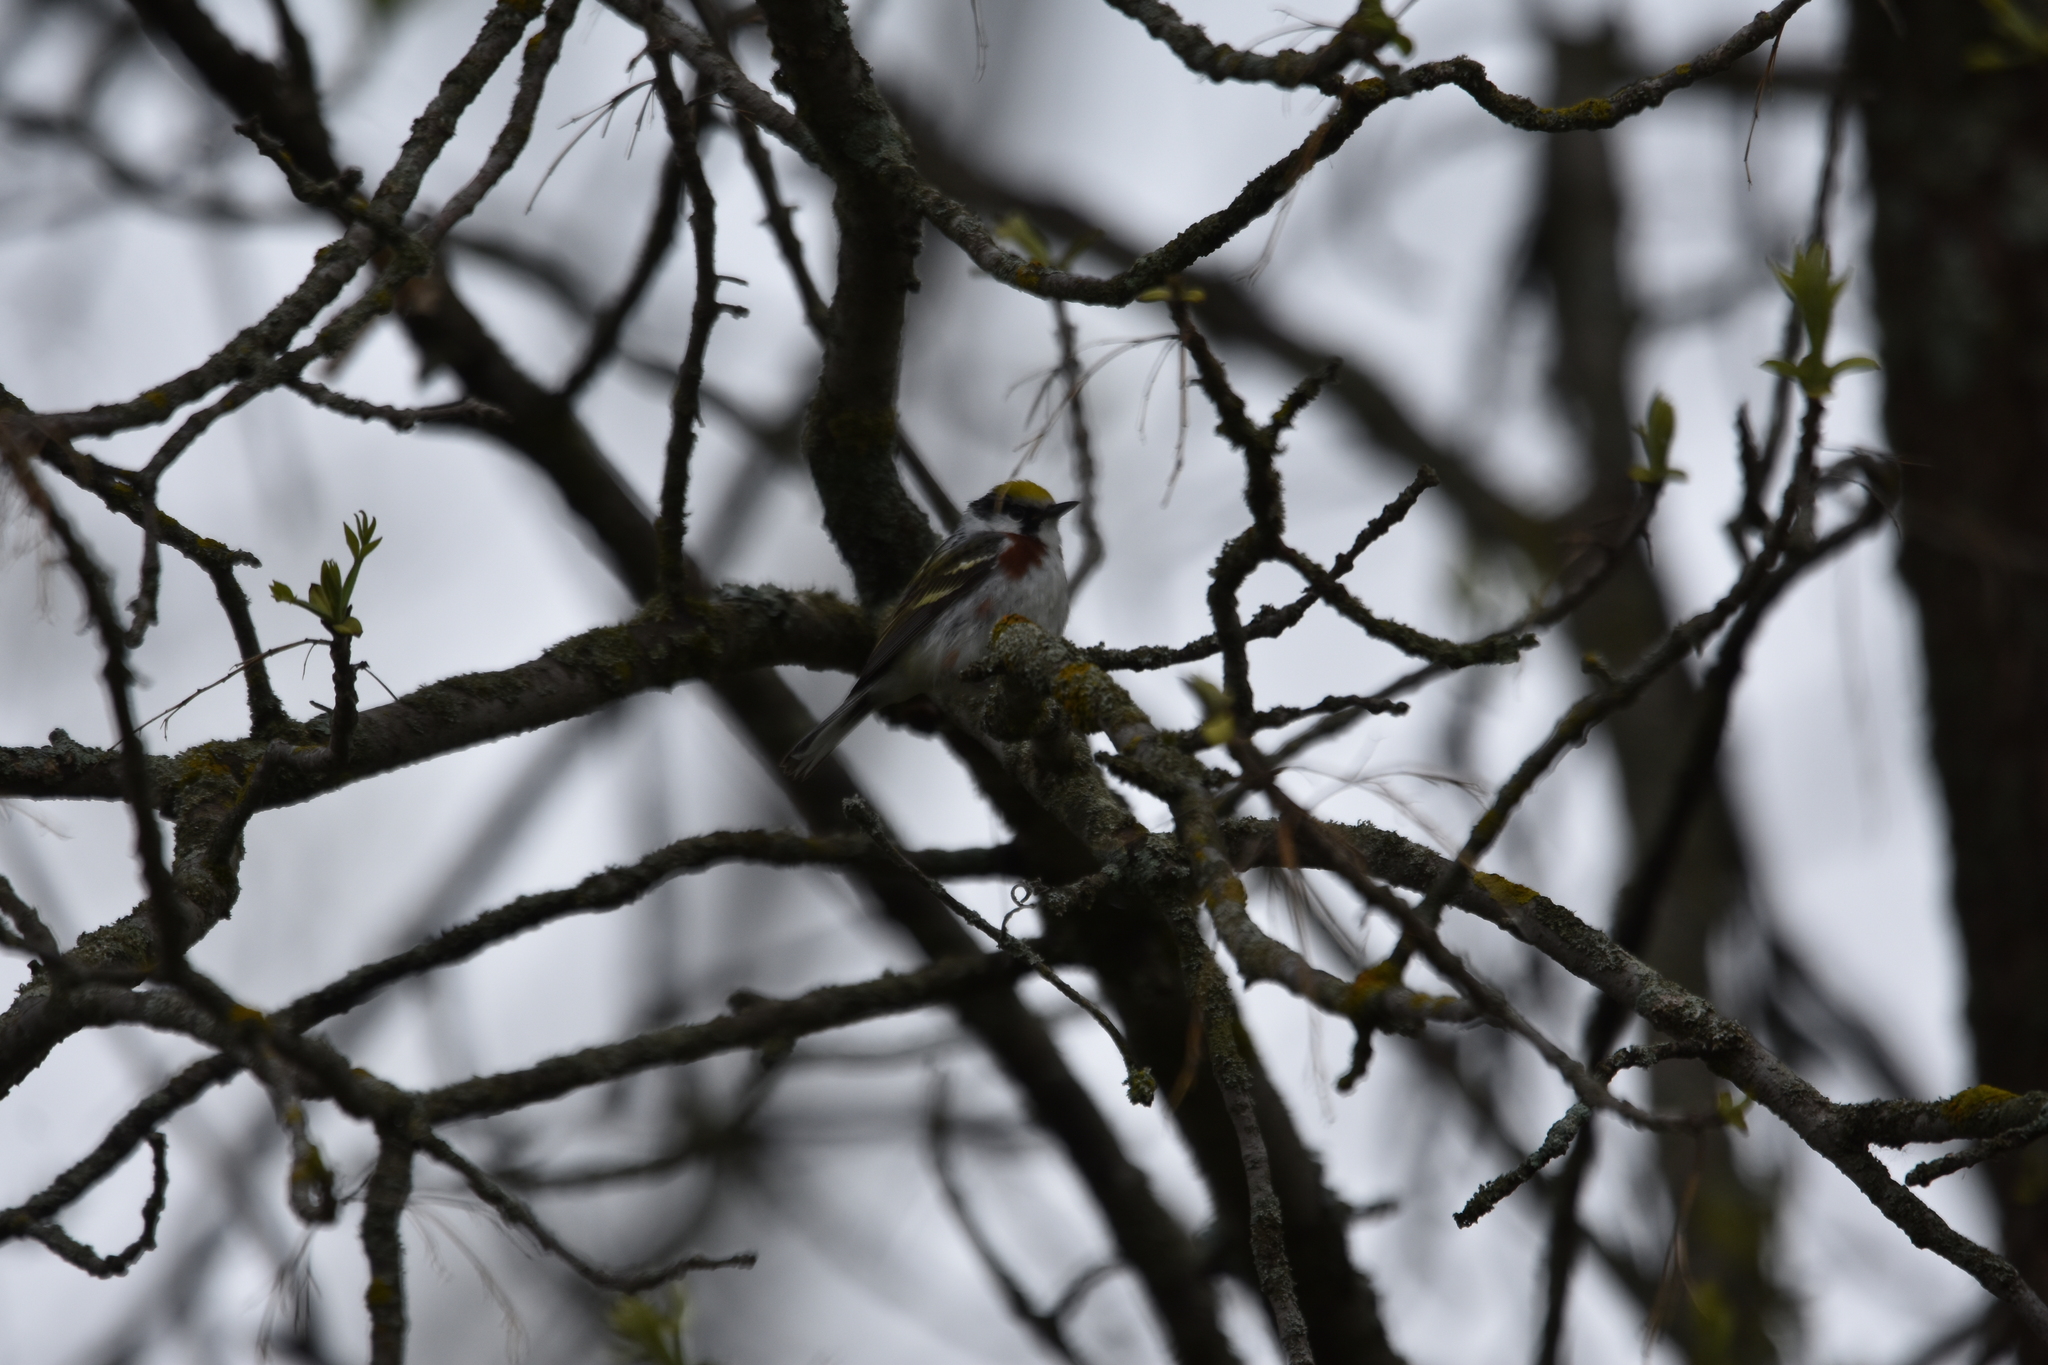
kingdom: Animalia
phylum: Chordata
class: Aves
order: Passeriformes
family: Parulidae
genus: Setophaga
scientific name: Setophaga pensylvanica
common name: Chestnut-sided warbler
